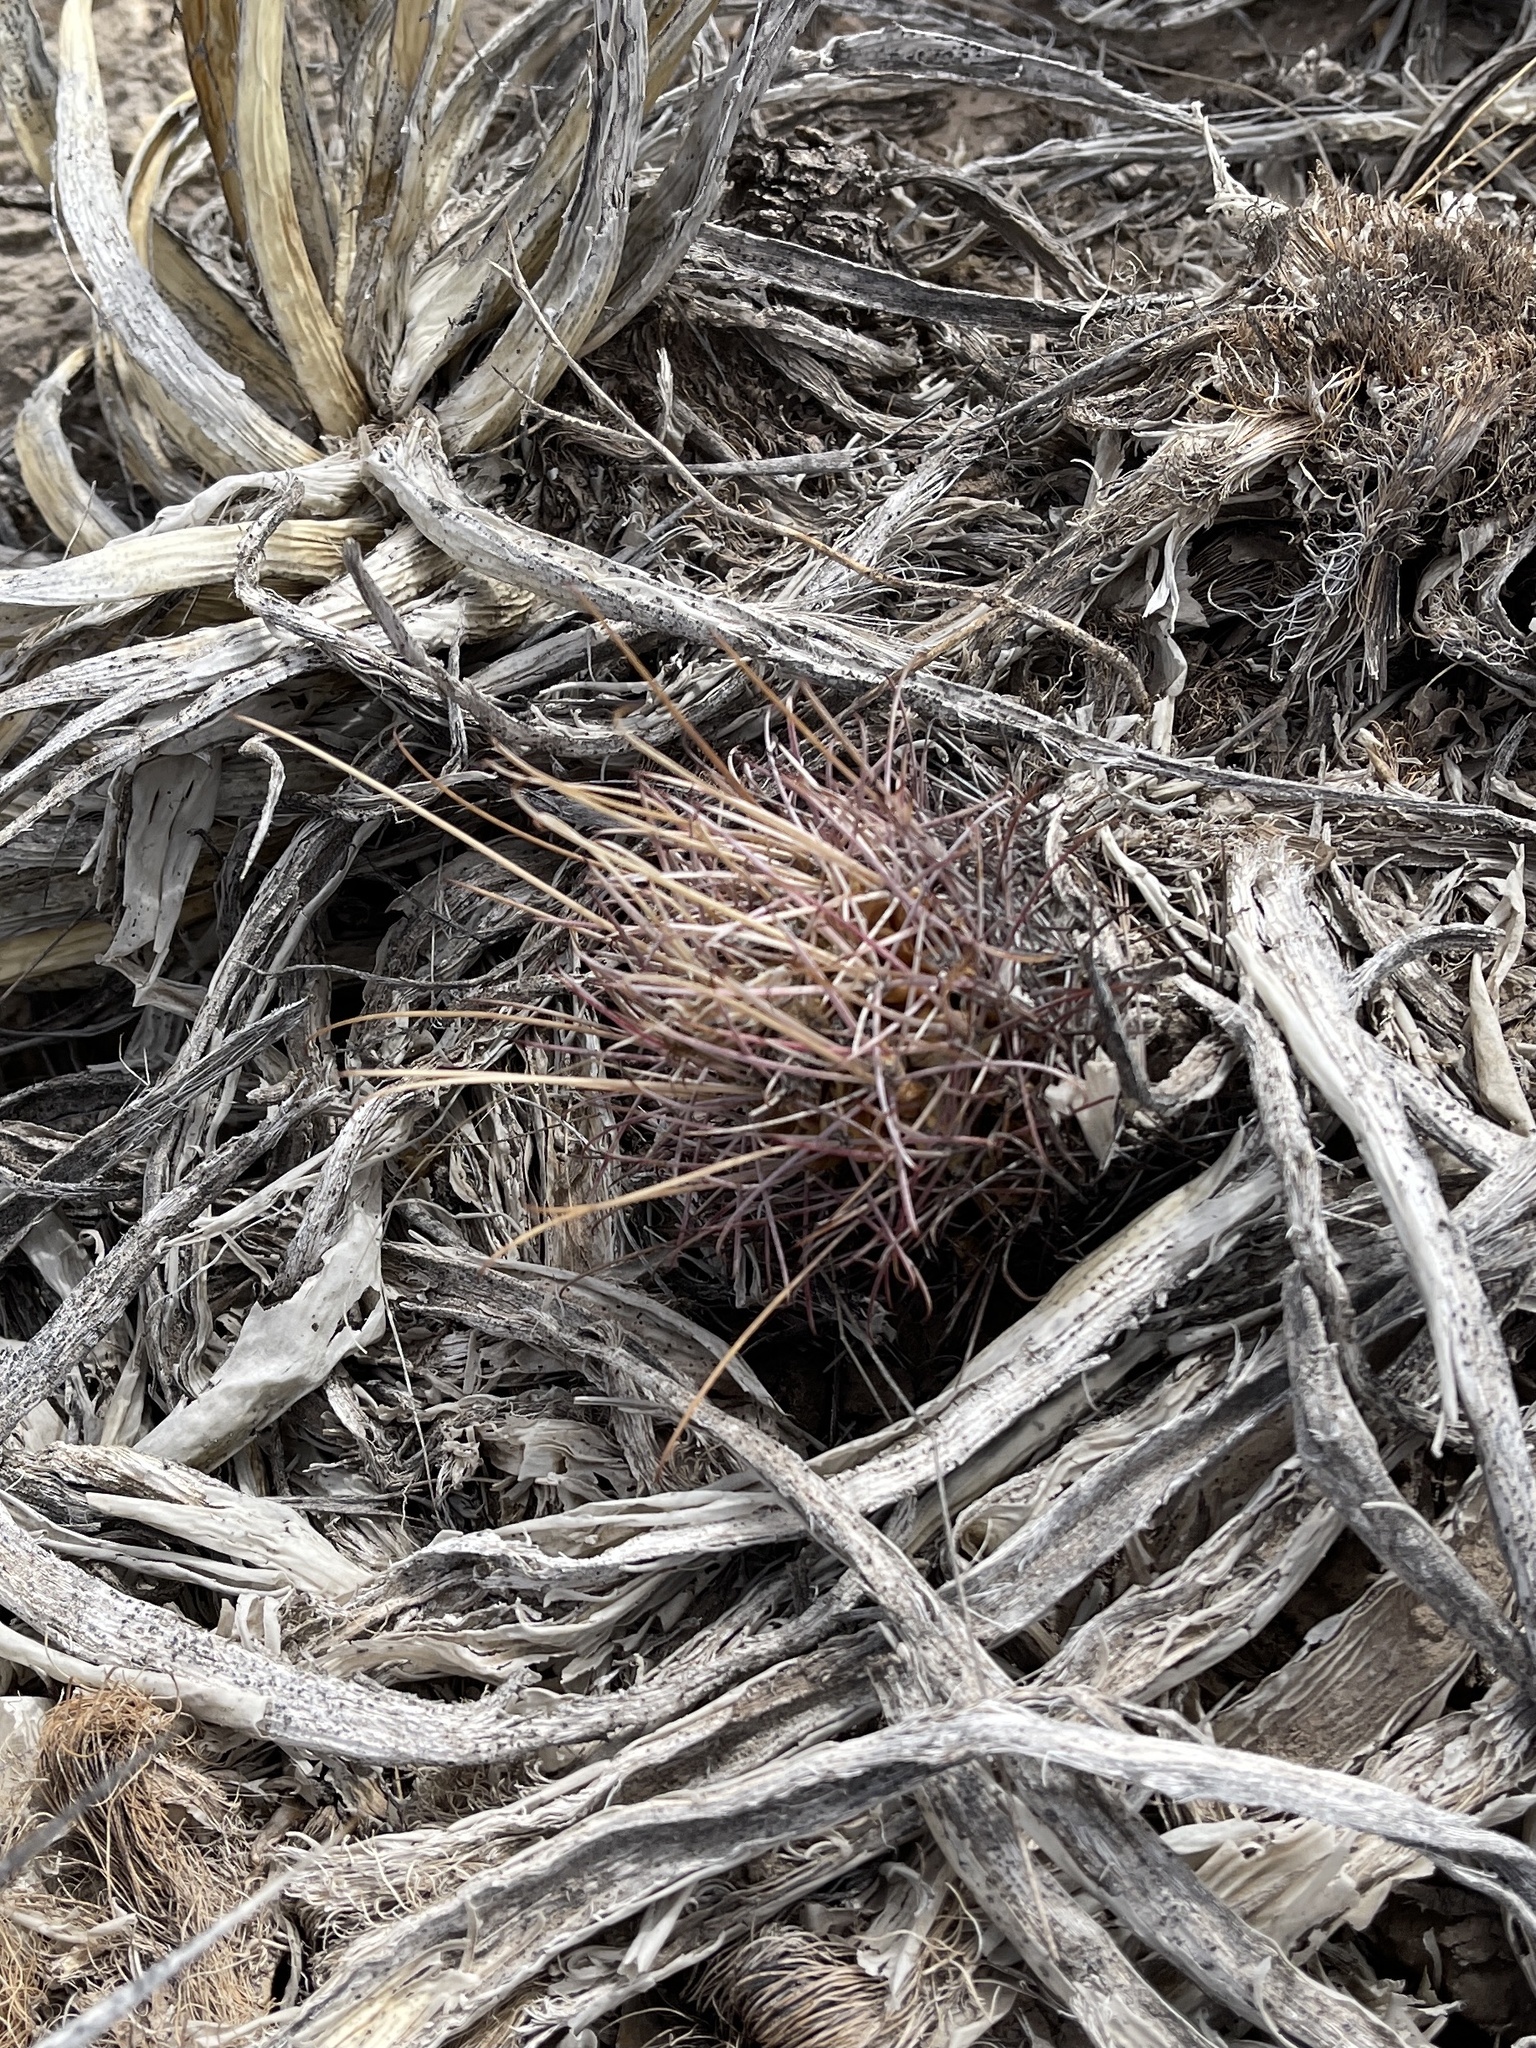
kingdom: Plantae
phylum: Tracheophyta
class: Magnoliopsida
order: Caryophyllales
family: Cactaceae
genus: Ferocactus
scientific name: Ferocactus uncinatus
